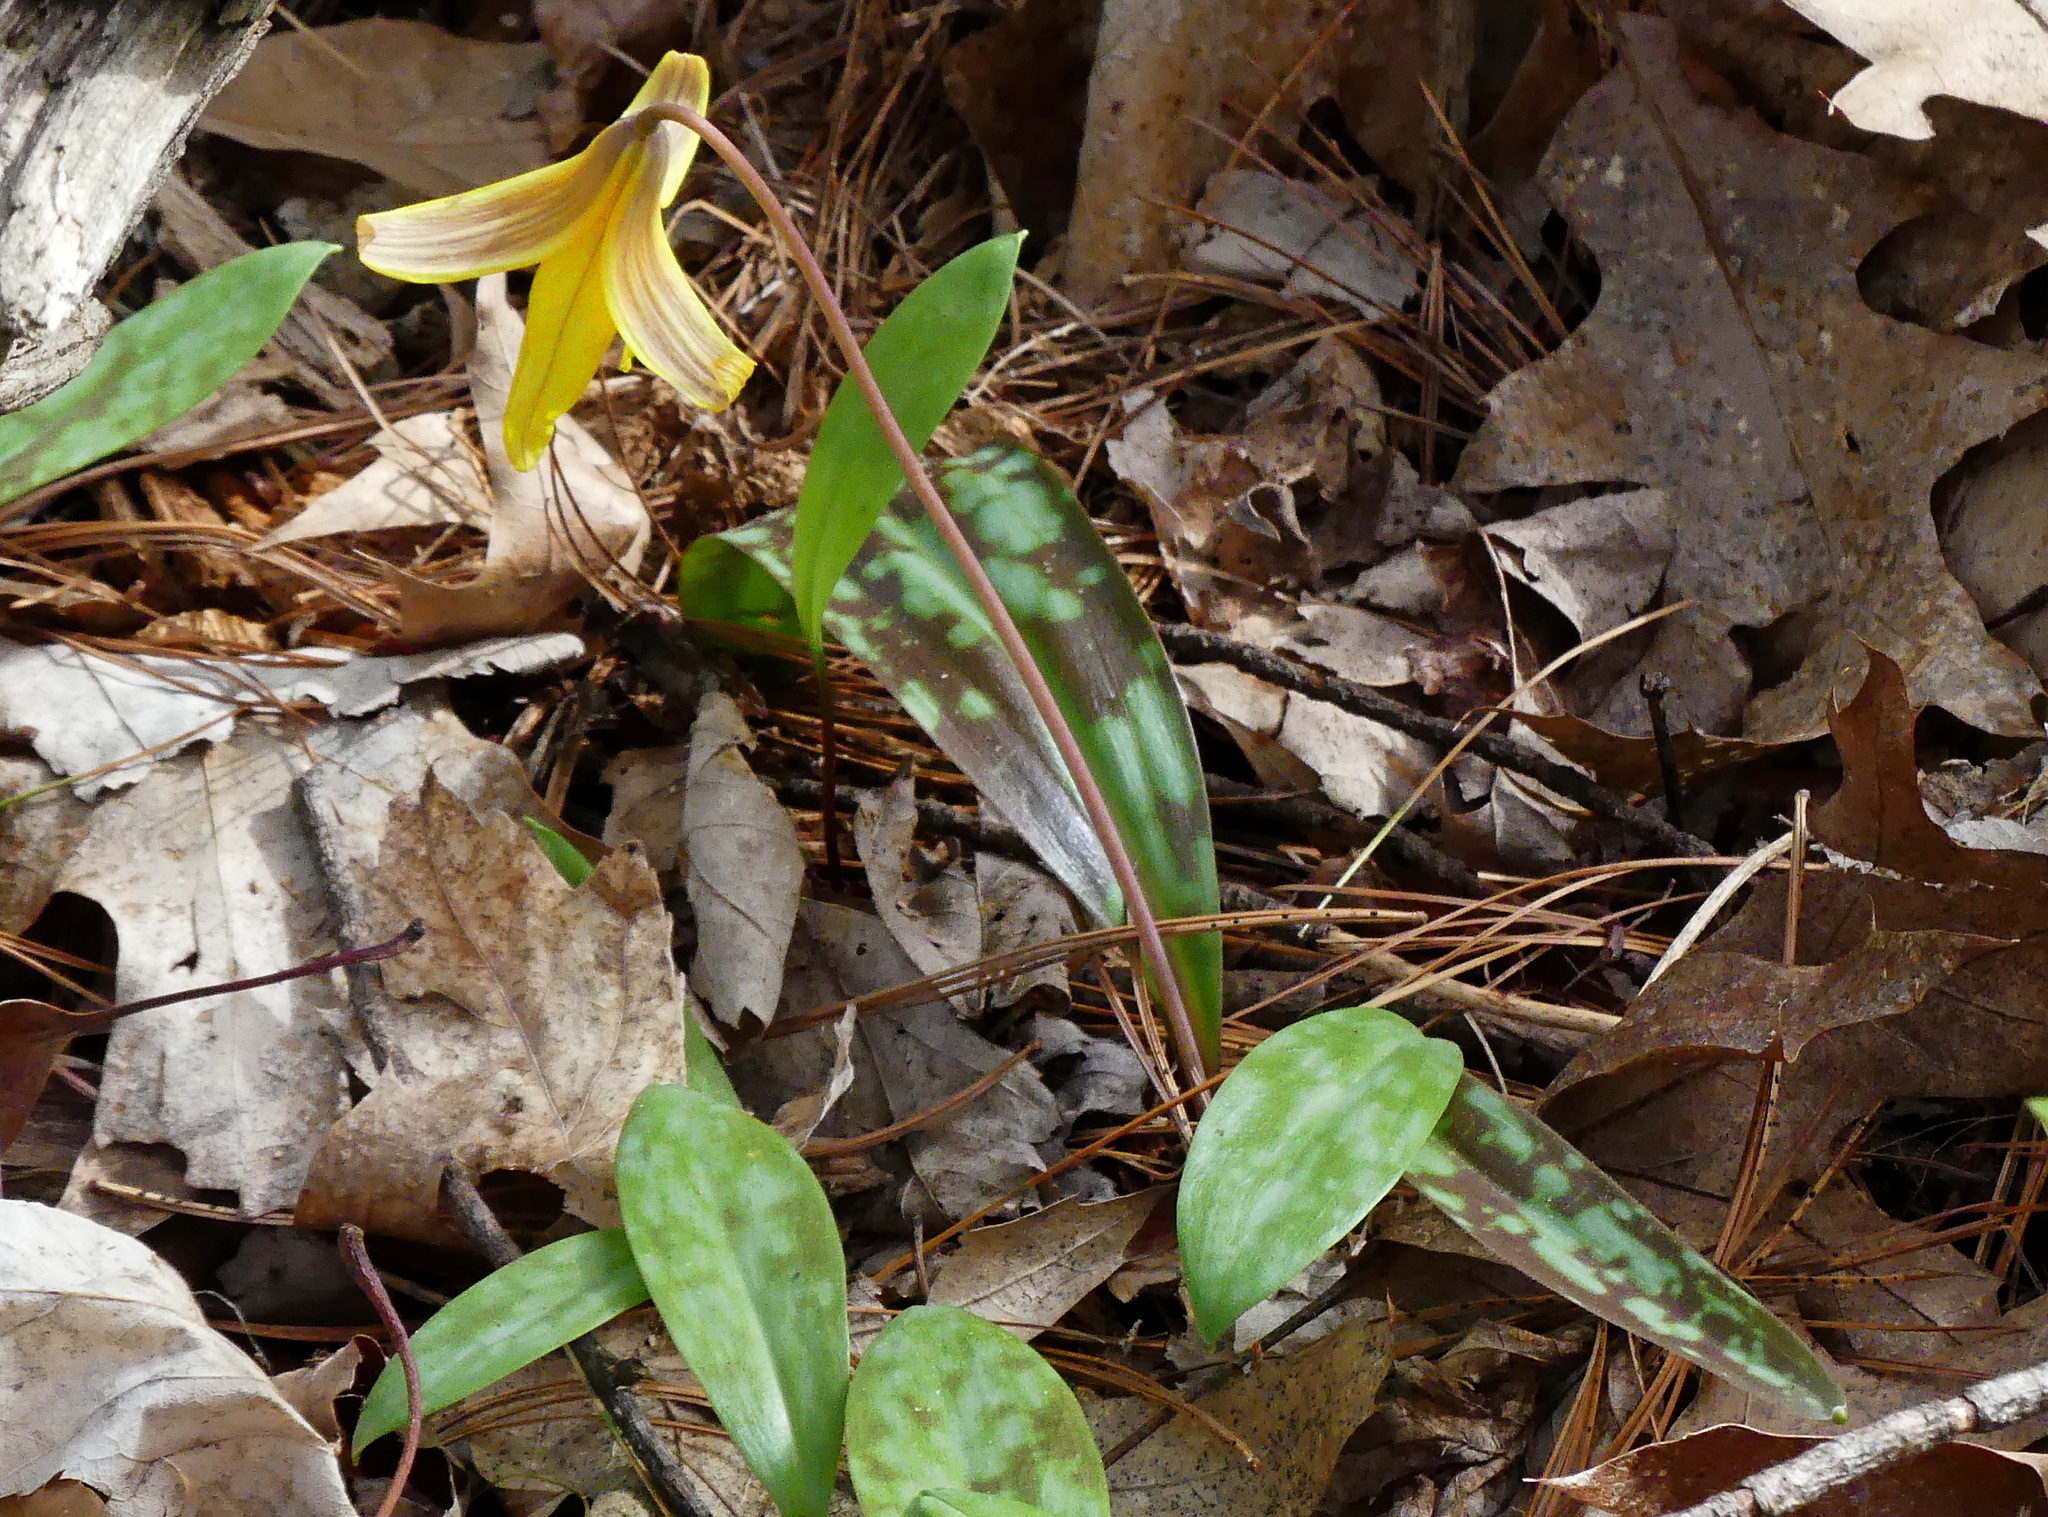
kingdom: Plantae
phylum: Tracheophyta
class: Liliopsida
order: Liliales
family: Liliaceae
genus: Erythronium
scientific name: Erythronium americanum
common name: Yellow adder's-tongue
